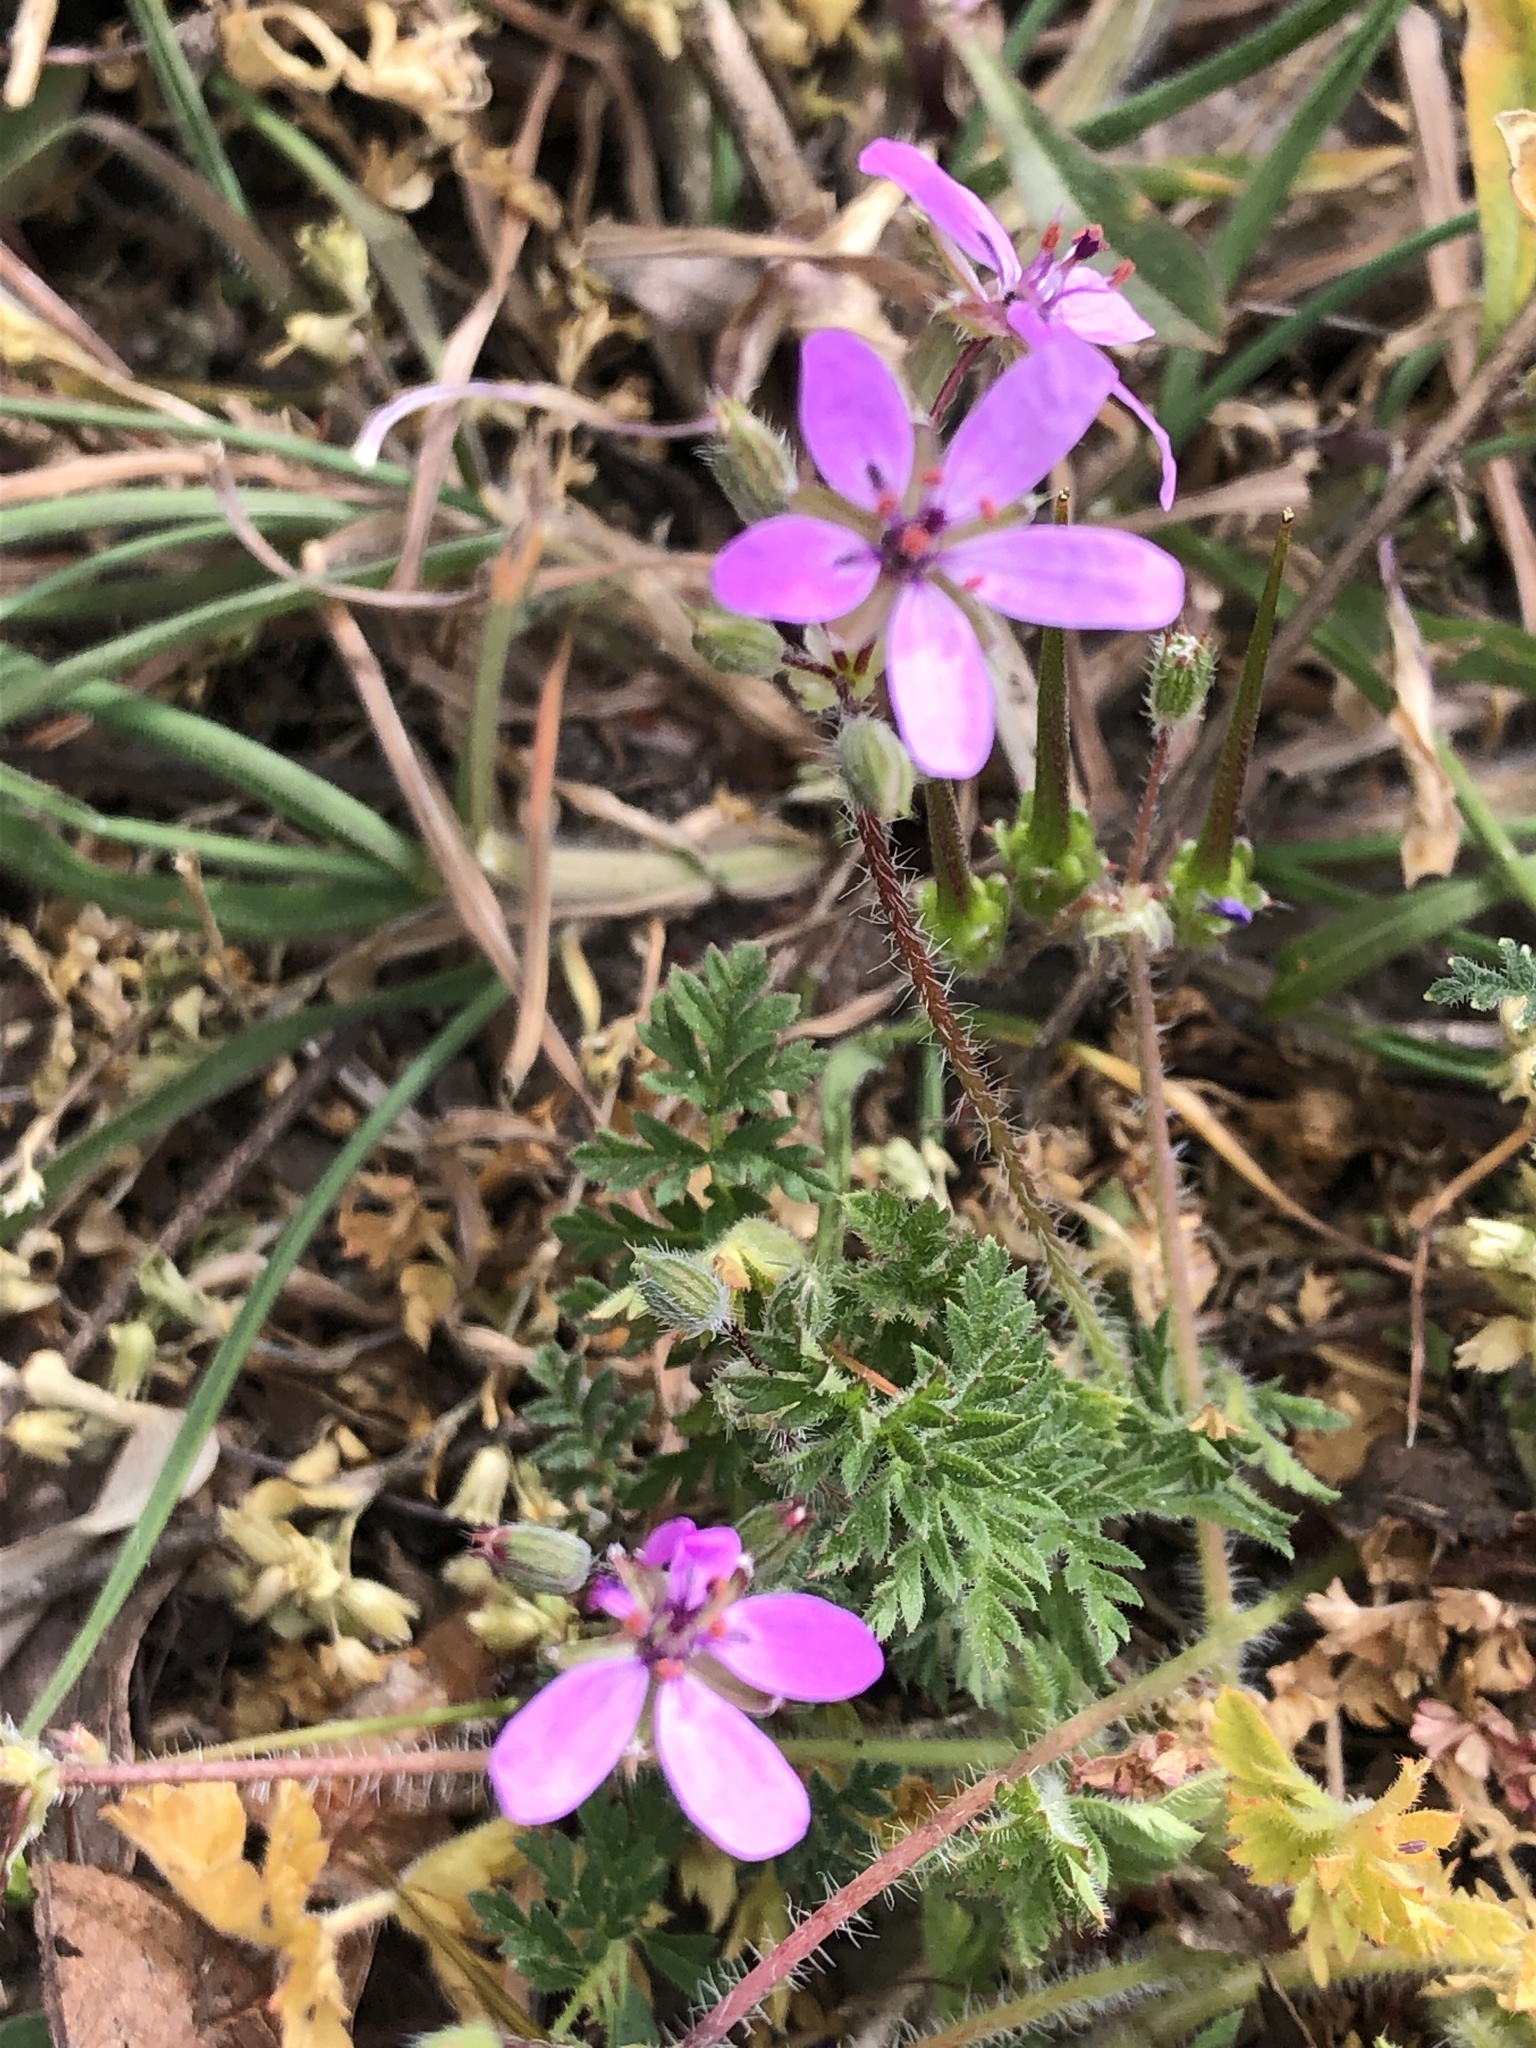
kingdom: Plantae
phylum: Tracheophyta
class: Magnoliopsida
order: Geraniales
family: Geraniaceae
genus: Erodium
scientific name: Erodium cicutarium
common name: Common stork's-bill
